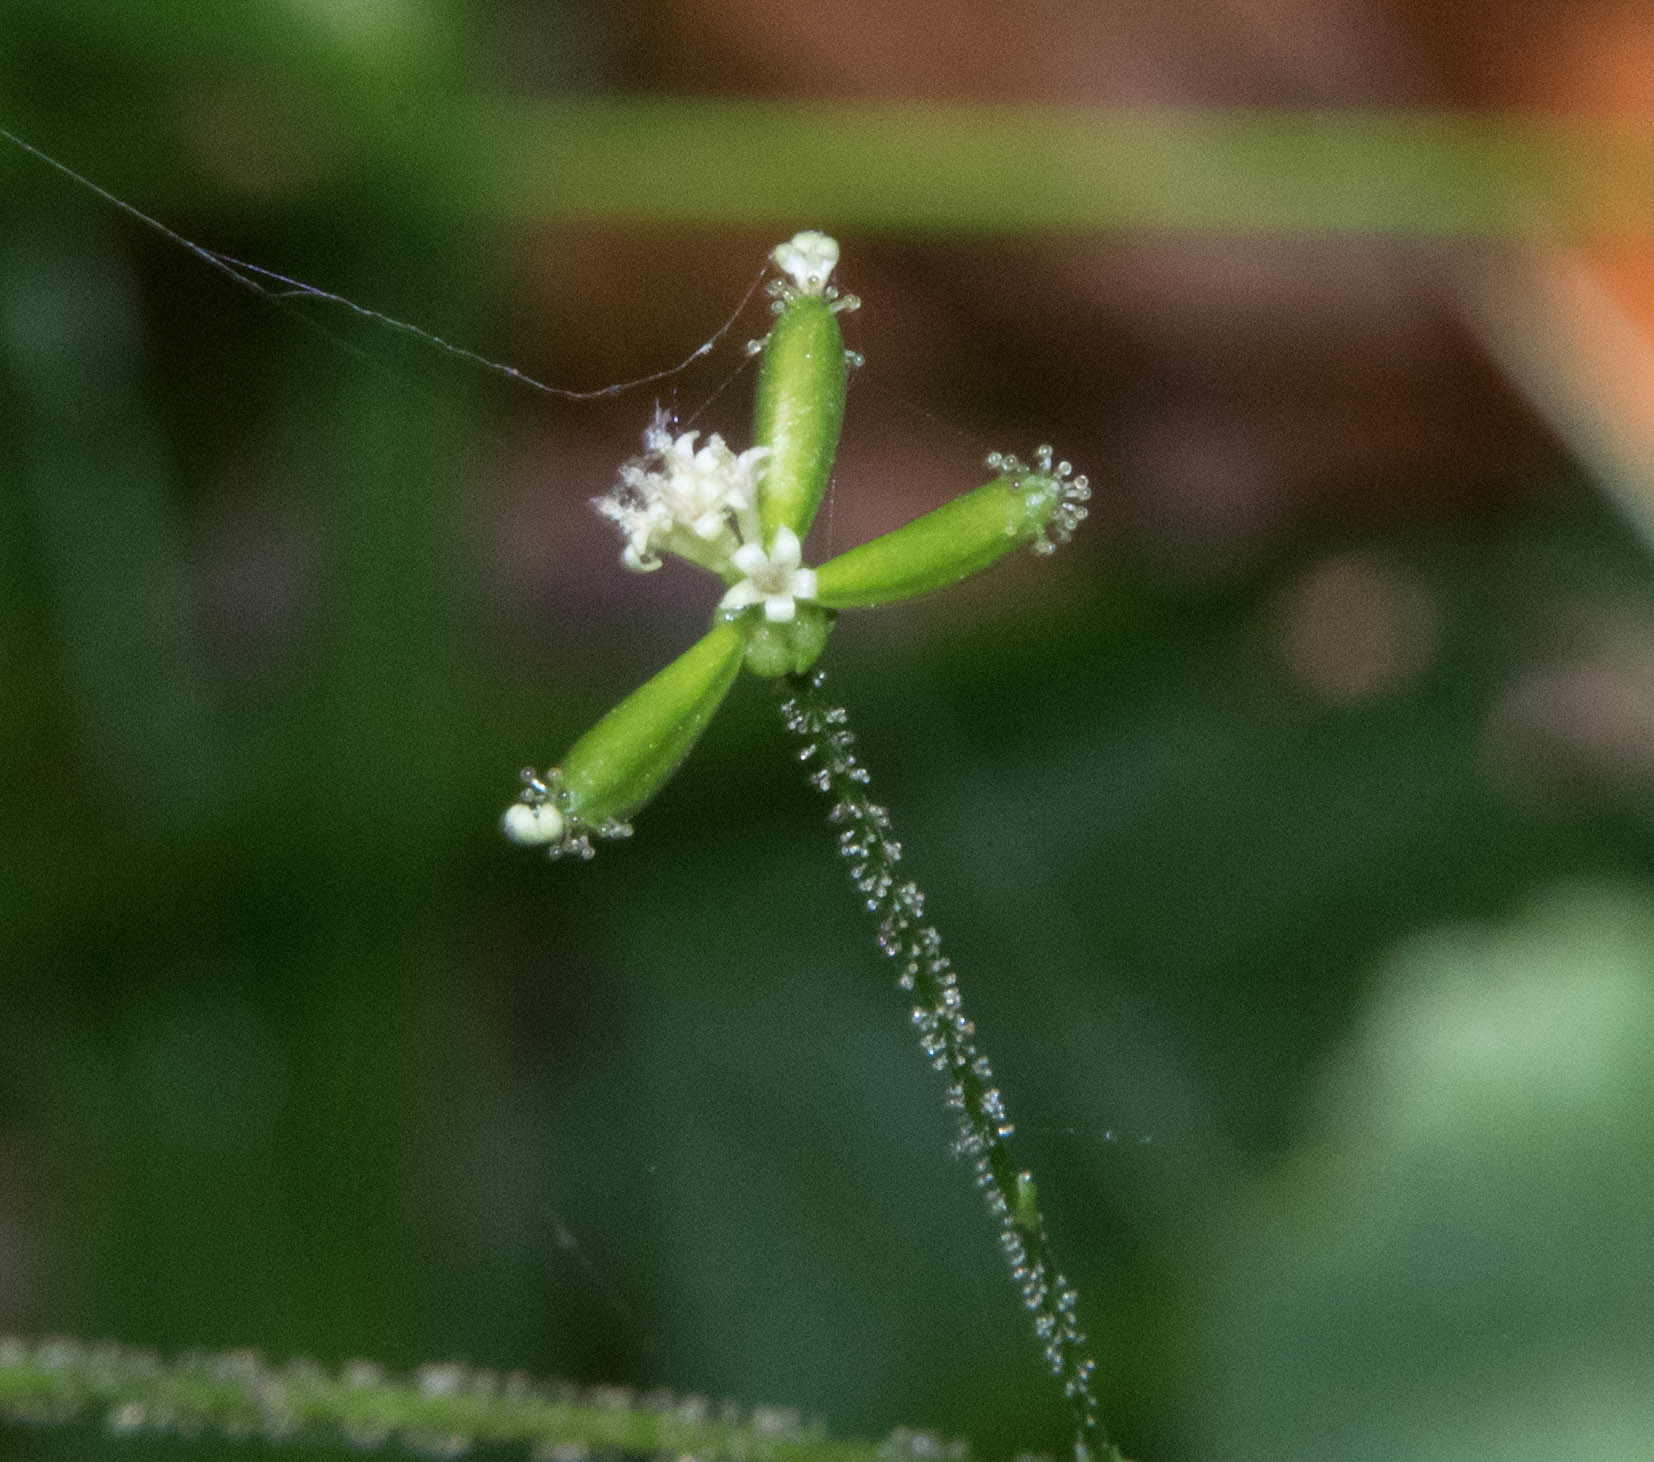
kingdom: Plantae
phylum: Tracheophyta
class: Magnoliopsida
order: Asterales
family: Asteraceae
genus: Adenocaulon
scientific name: Adenocaulon bicolor
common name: Trailplant
